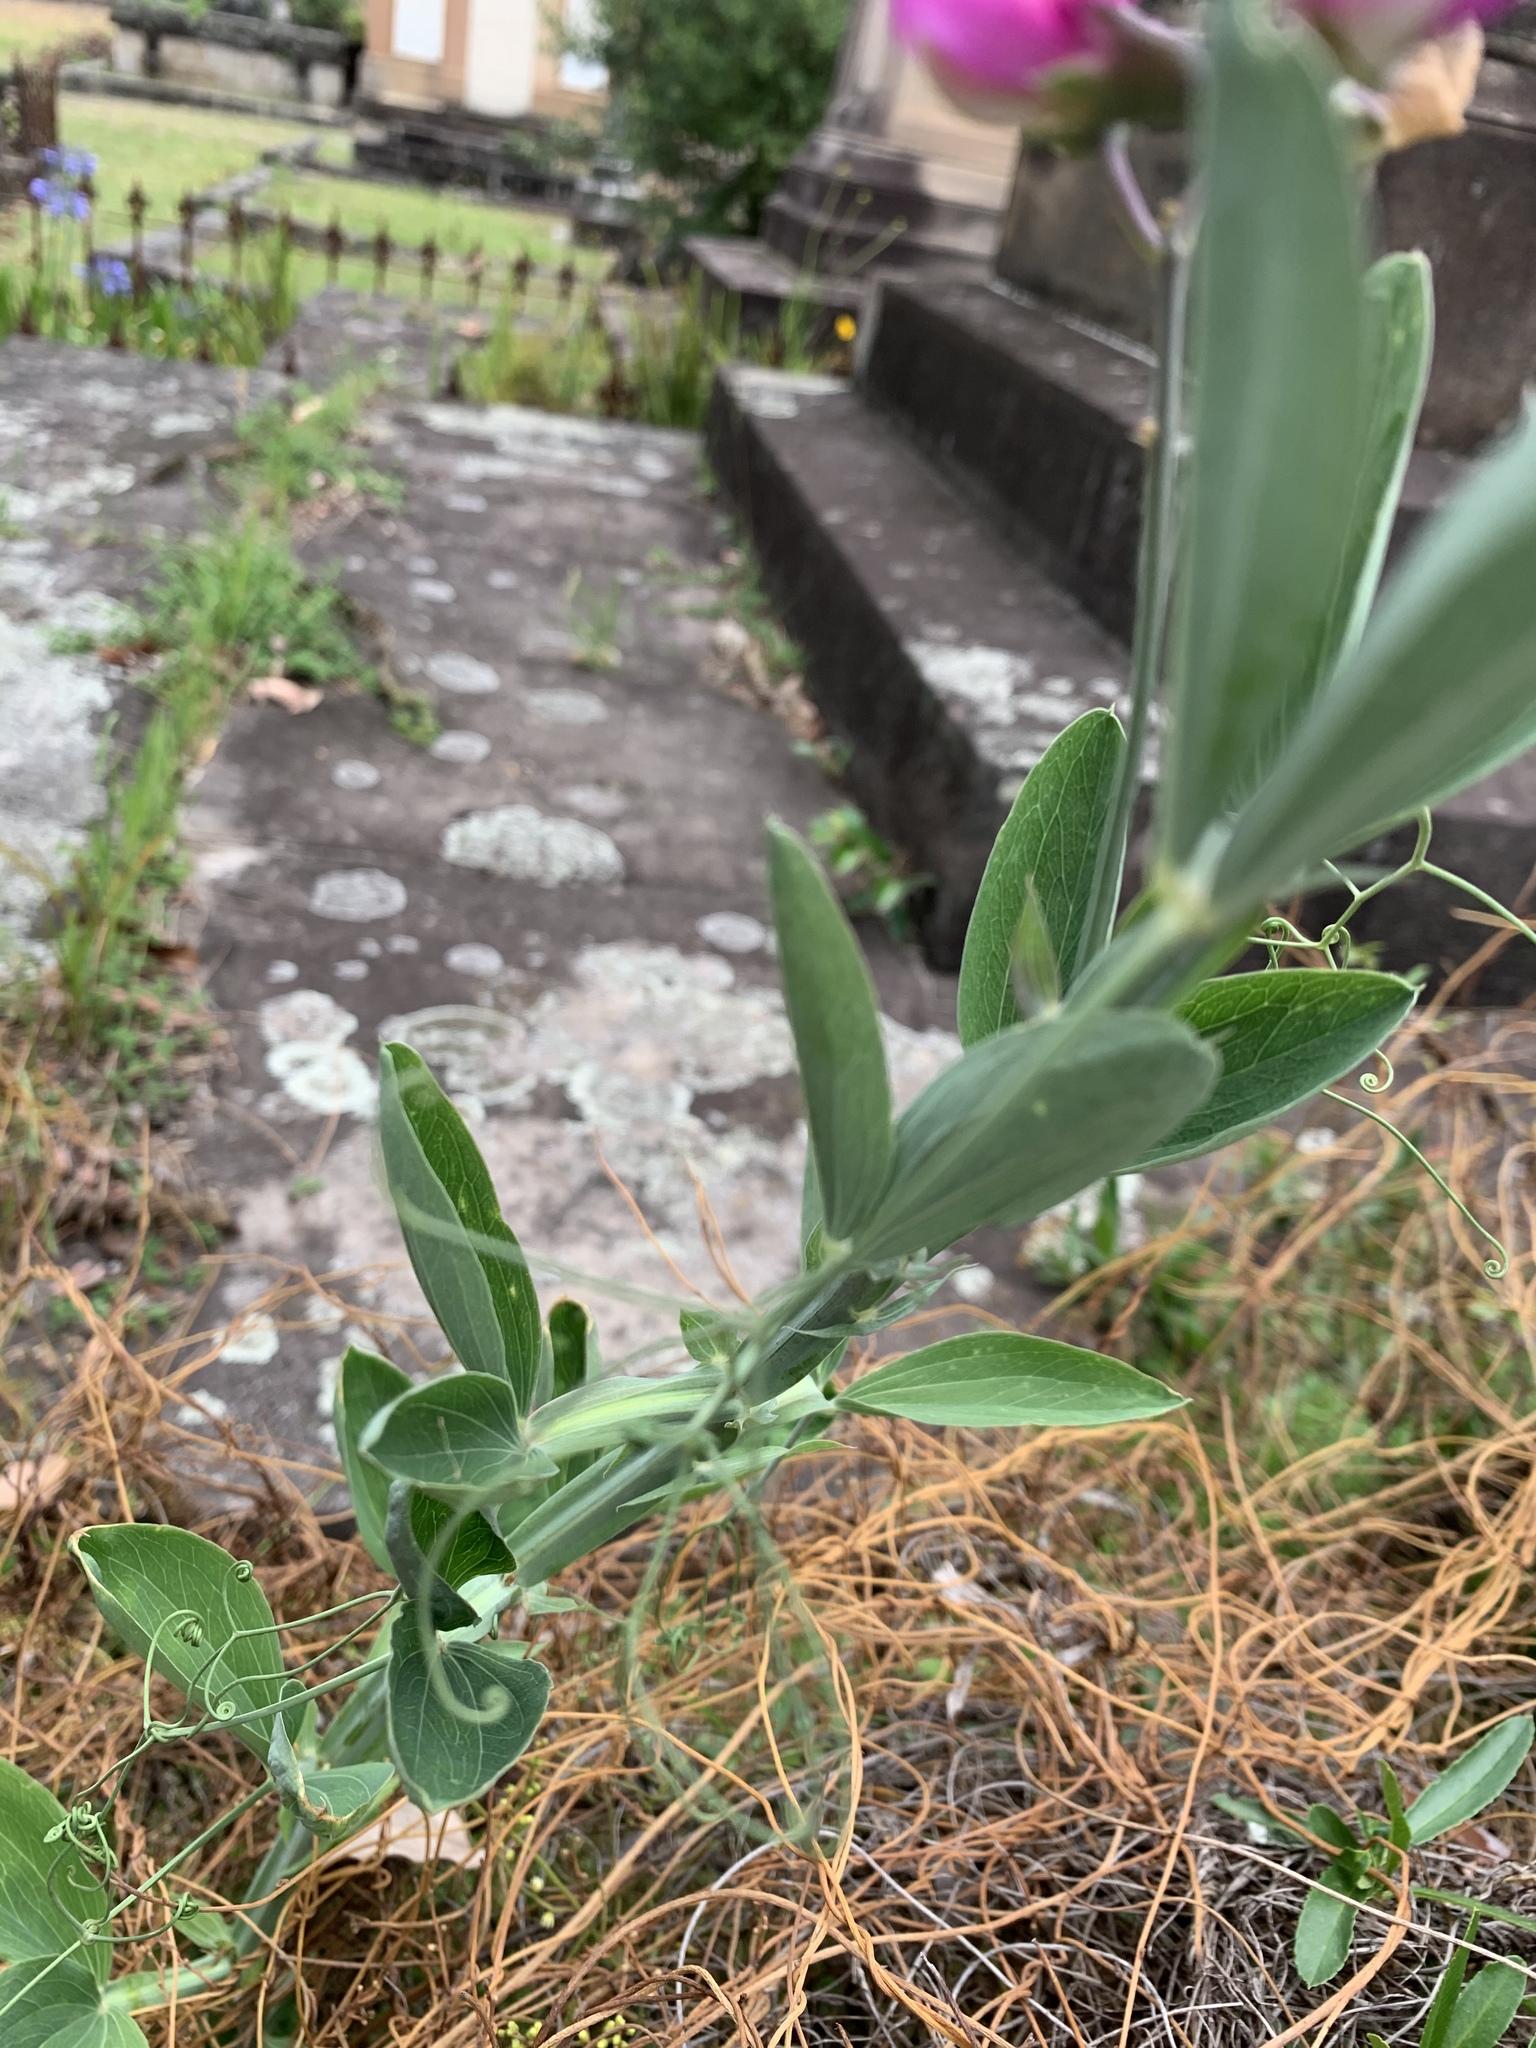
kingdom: Plantae
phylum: Tracheophyta
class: Magnoliopsida
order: Fabales
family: Fabaceae
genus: Lathyrus
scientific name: Lathyrus latifolius
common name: Perennial pea
